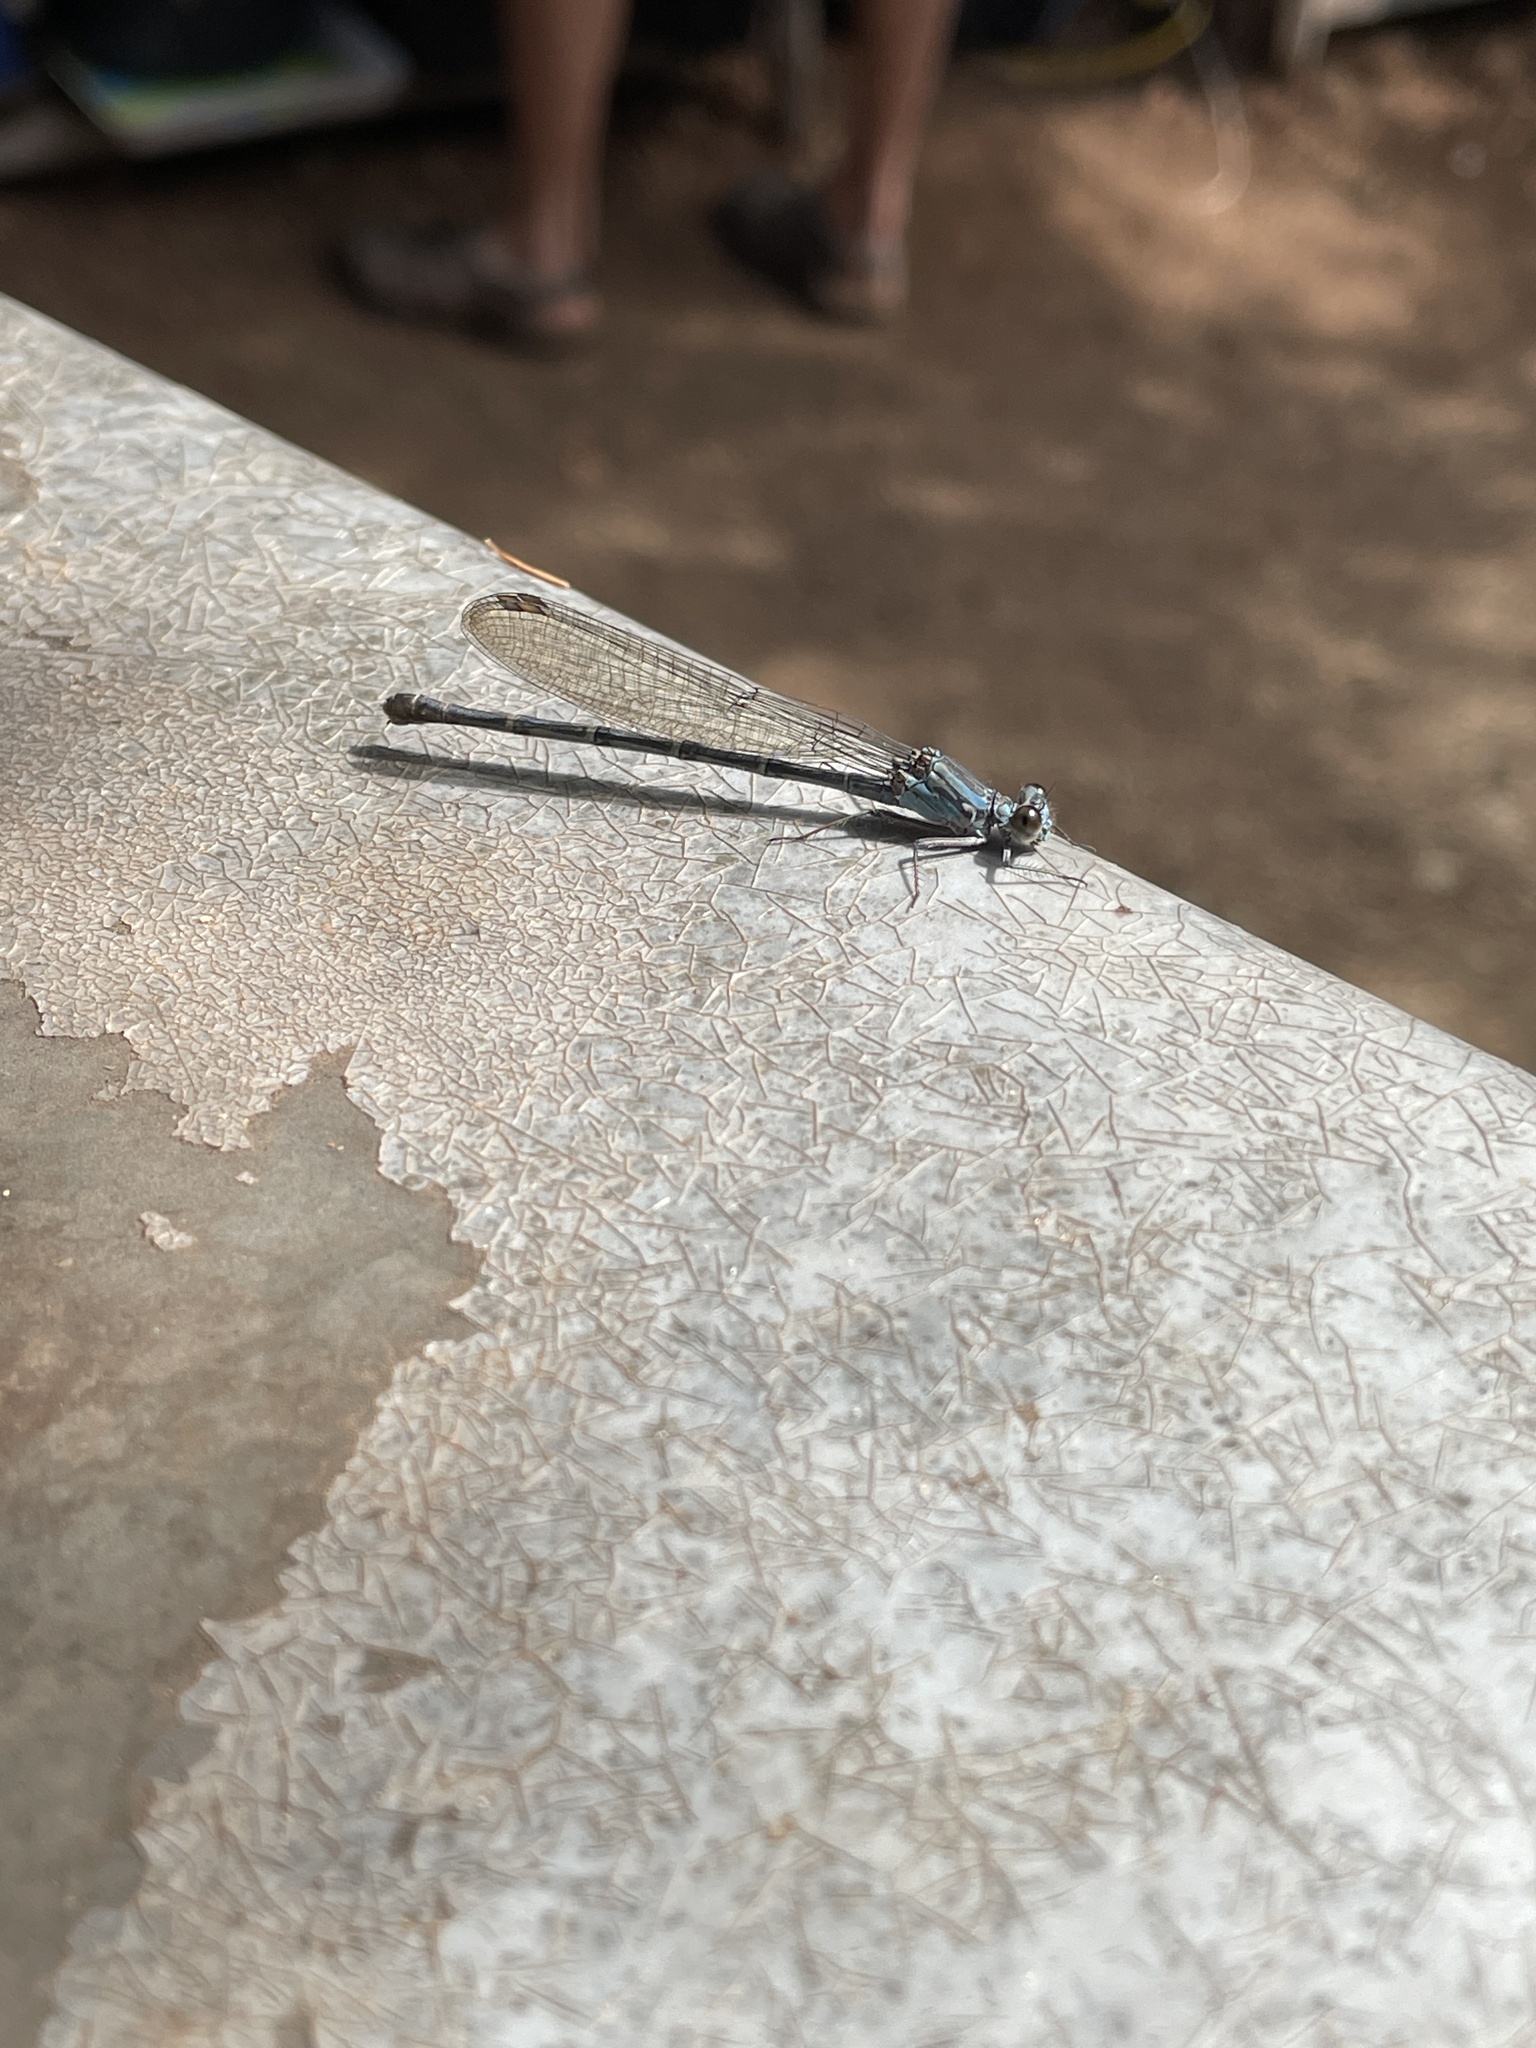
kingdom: Animalia
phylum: Arthropoda
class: Insecta
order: Odonata
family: Coenagrionidae
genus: Argia
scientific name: Argia lugens
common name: Sooty dancer
